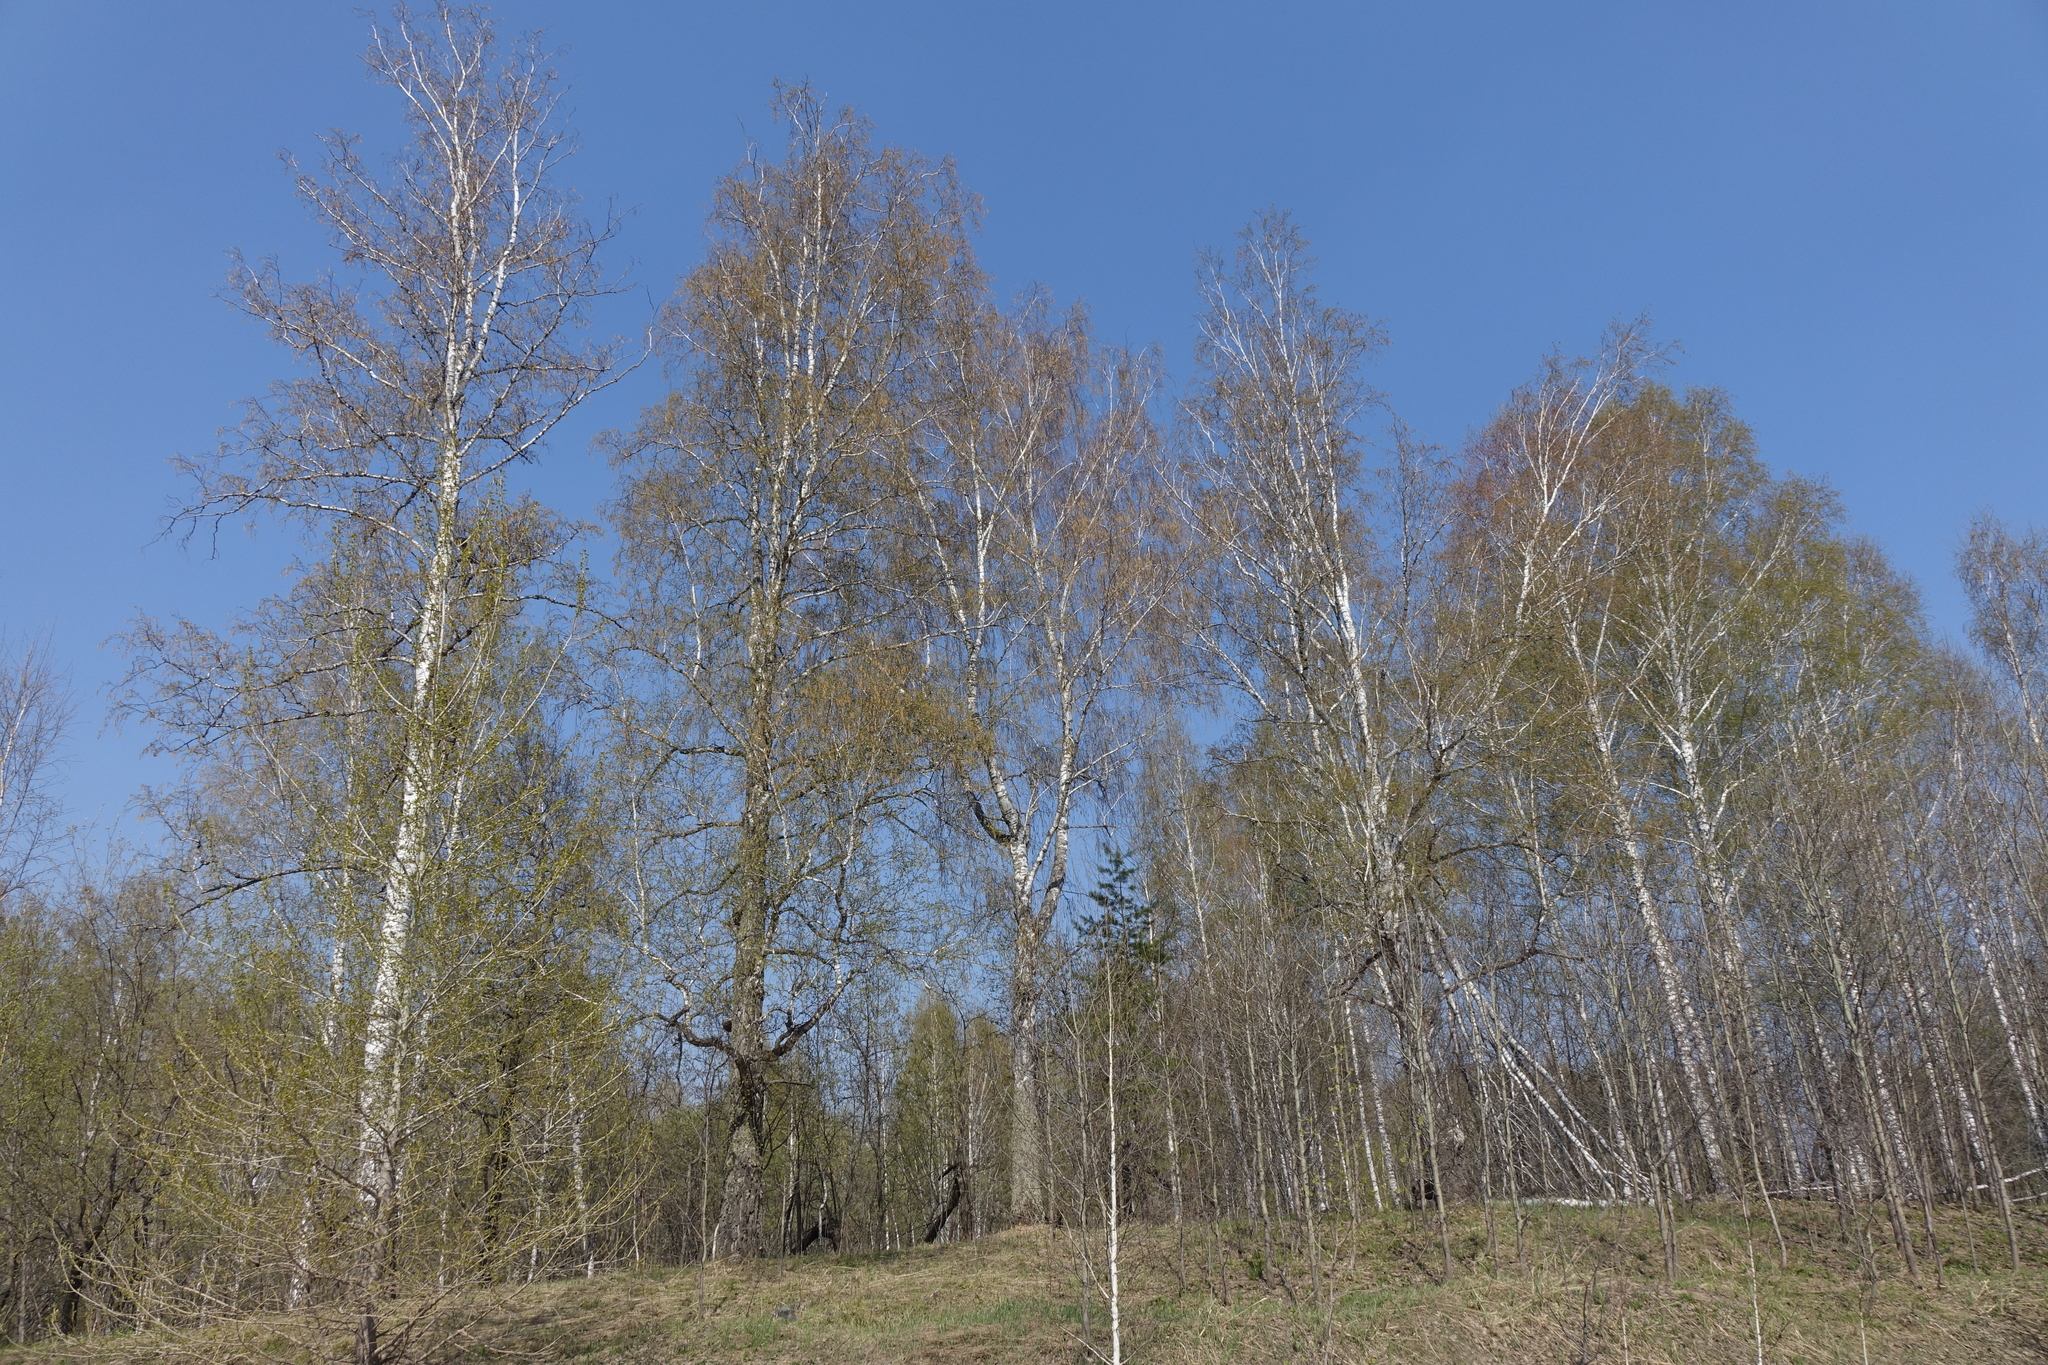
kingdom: Plantae
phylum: Tracheophyta
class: Magnoliopsida
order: Fagales
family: Betulaceae
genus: Betula
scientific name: Betula pendula
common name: Silver birch
